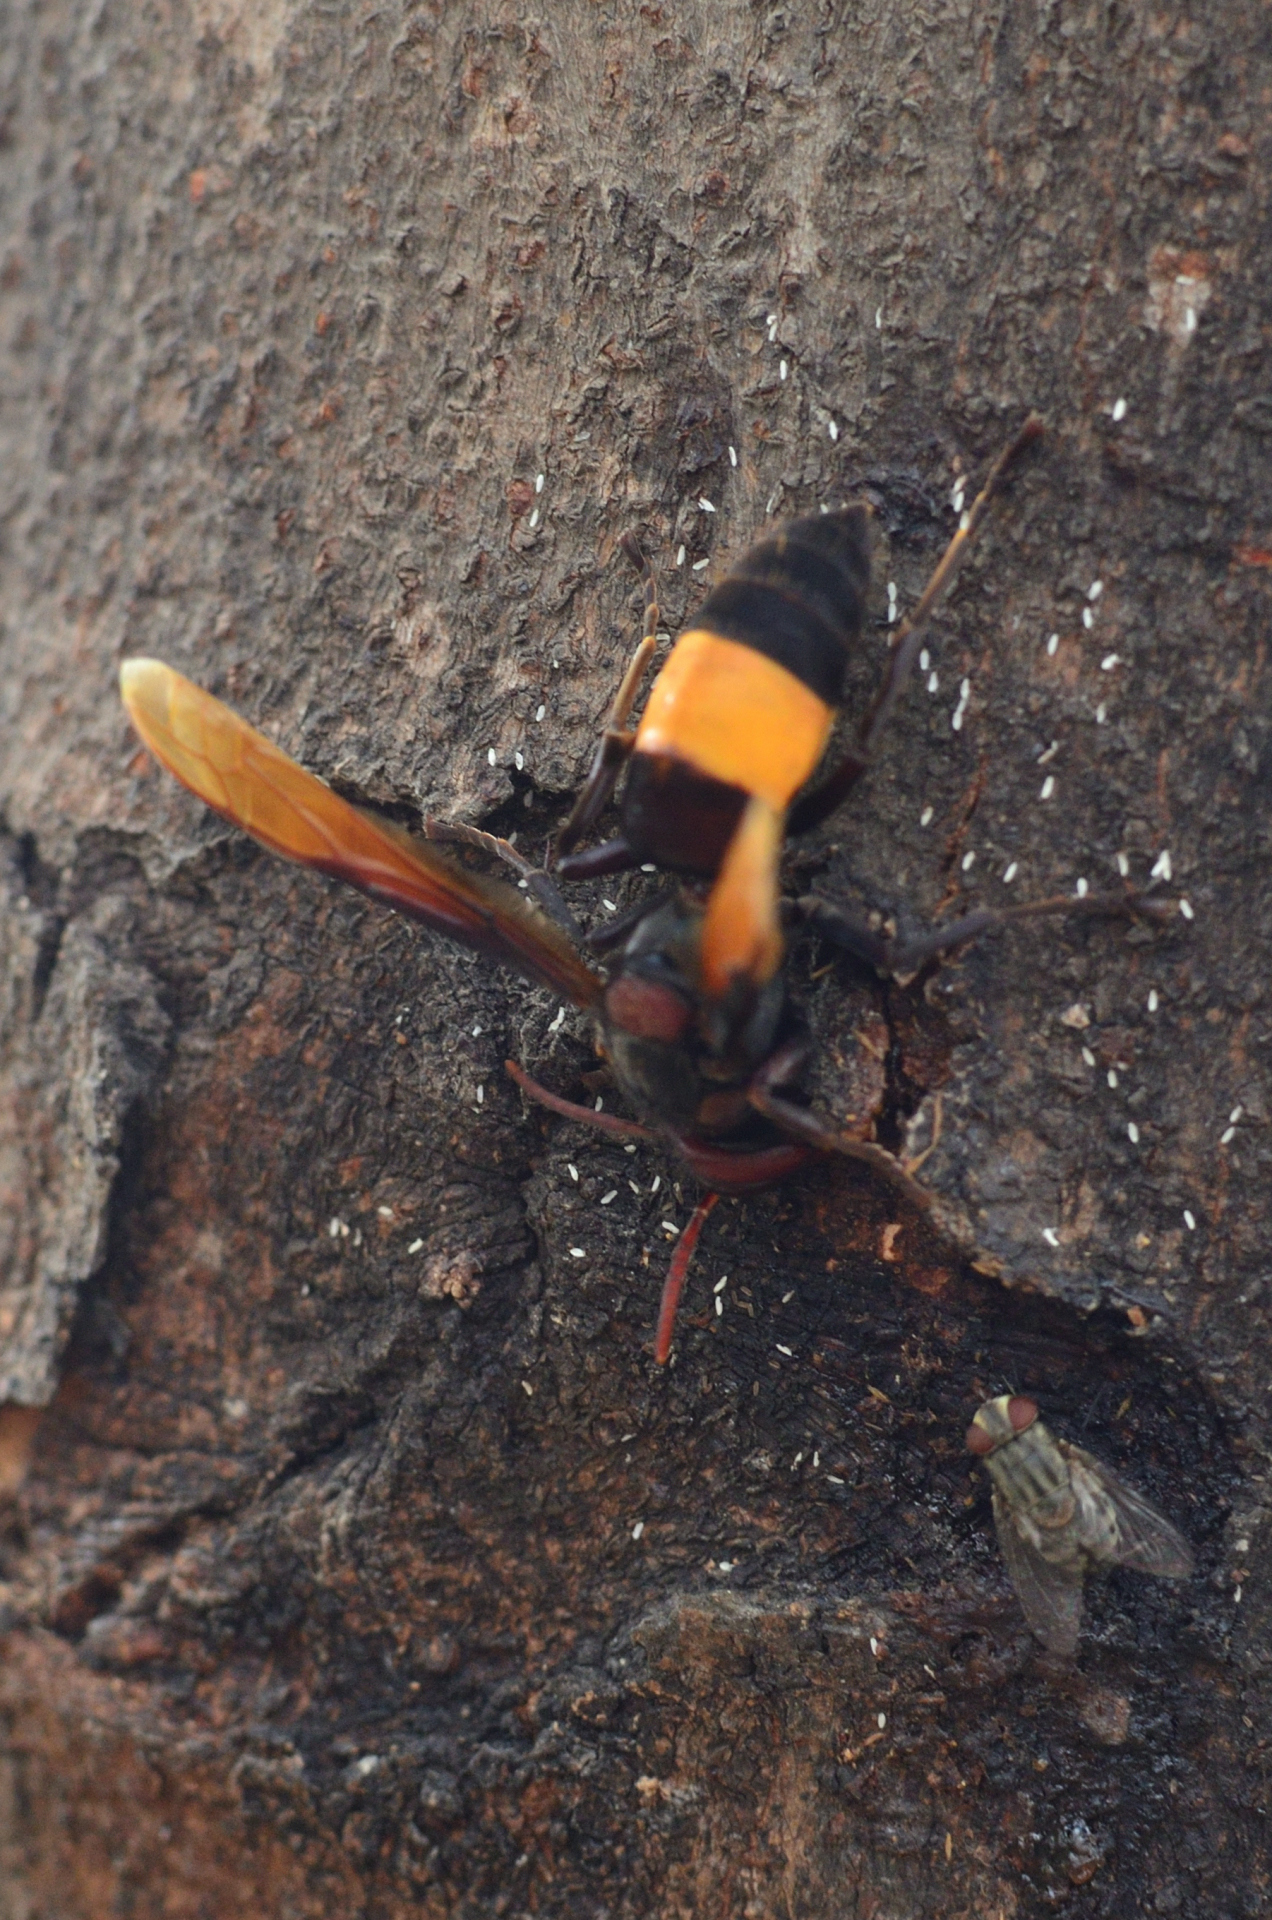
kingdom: Animalia
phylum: Arthropoda
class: Insecta
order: Hymenoptera
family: Vespidae
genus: Vespa
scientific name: Vespa tropica
